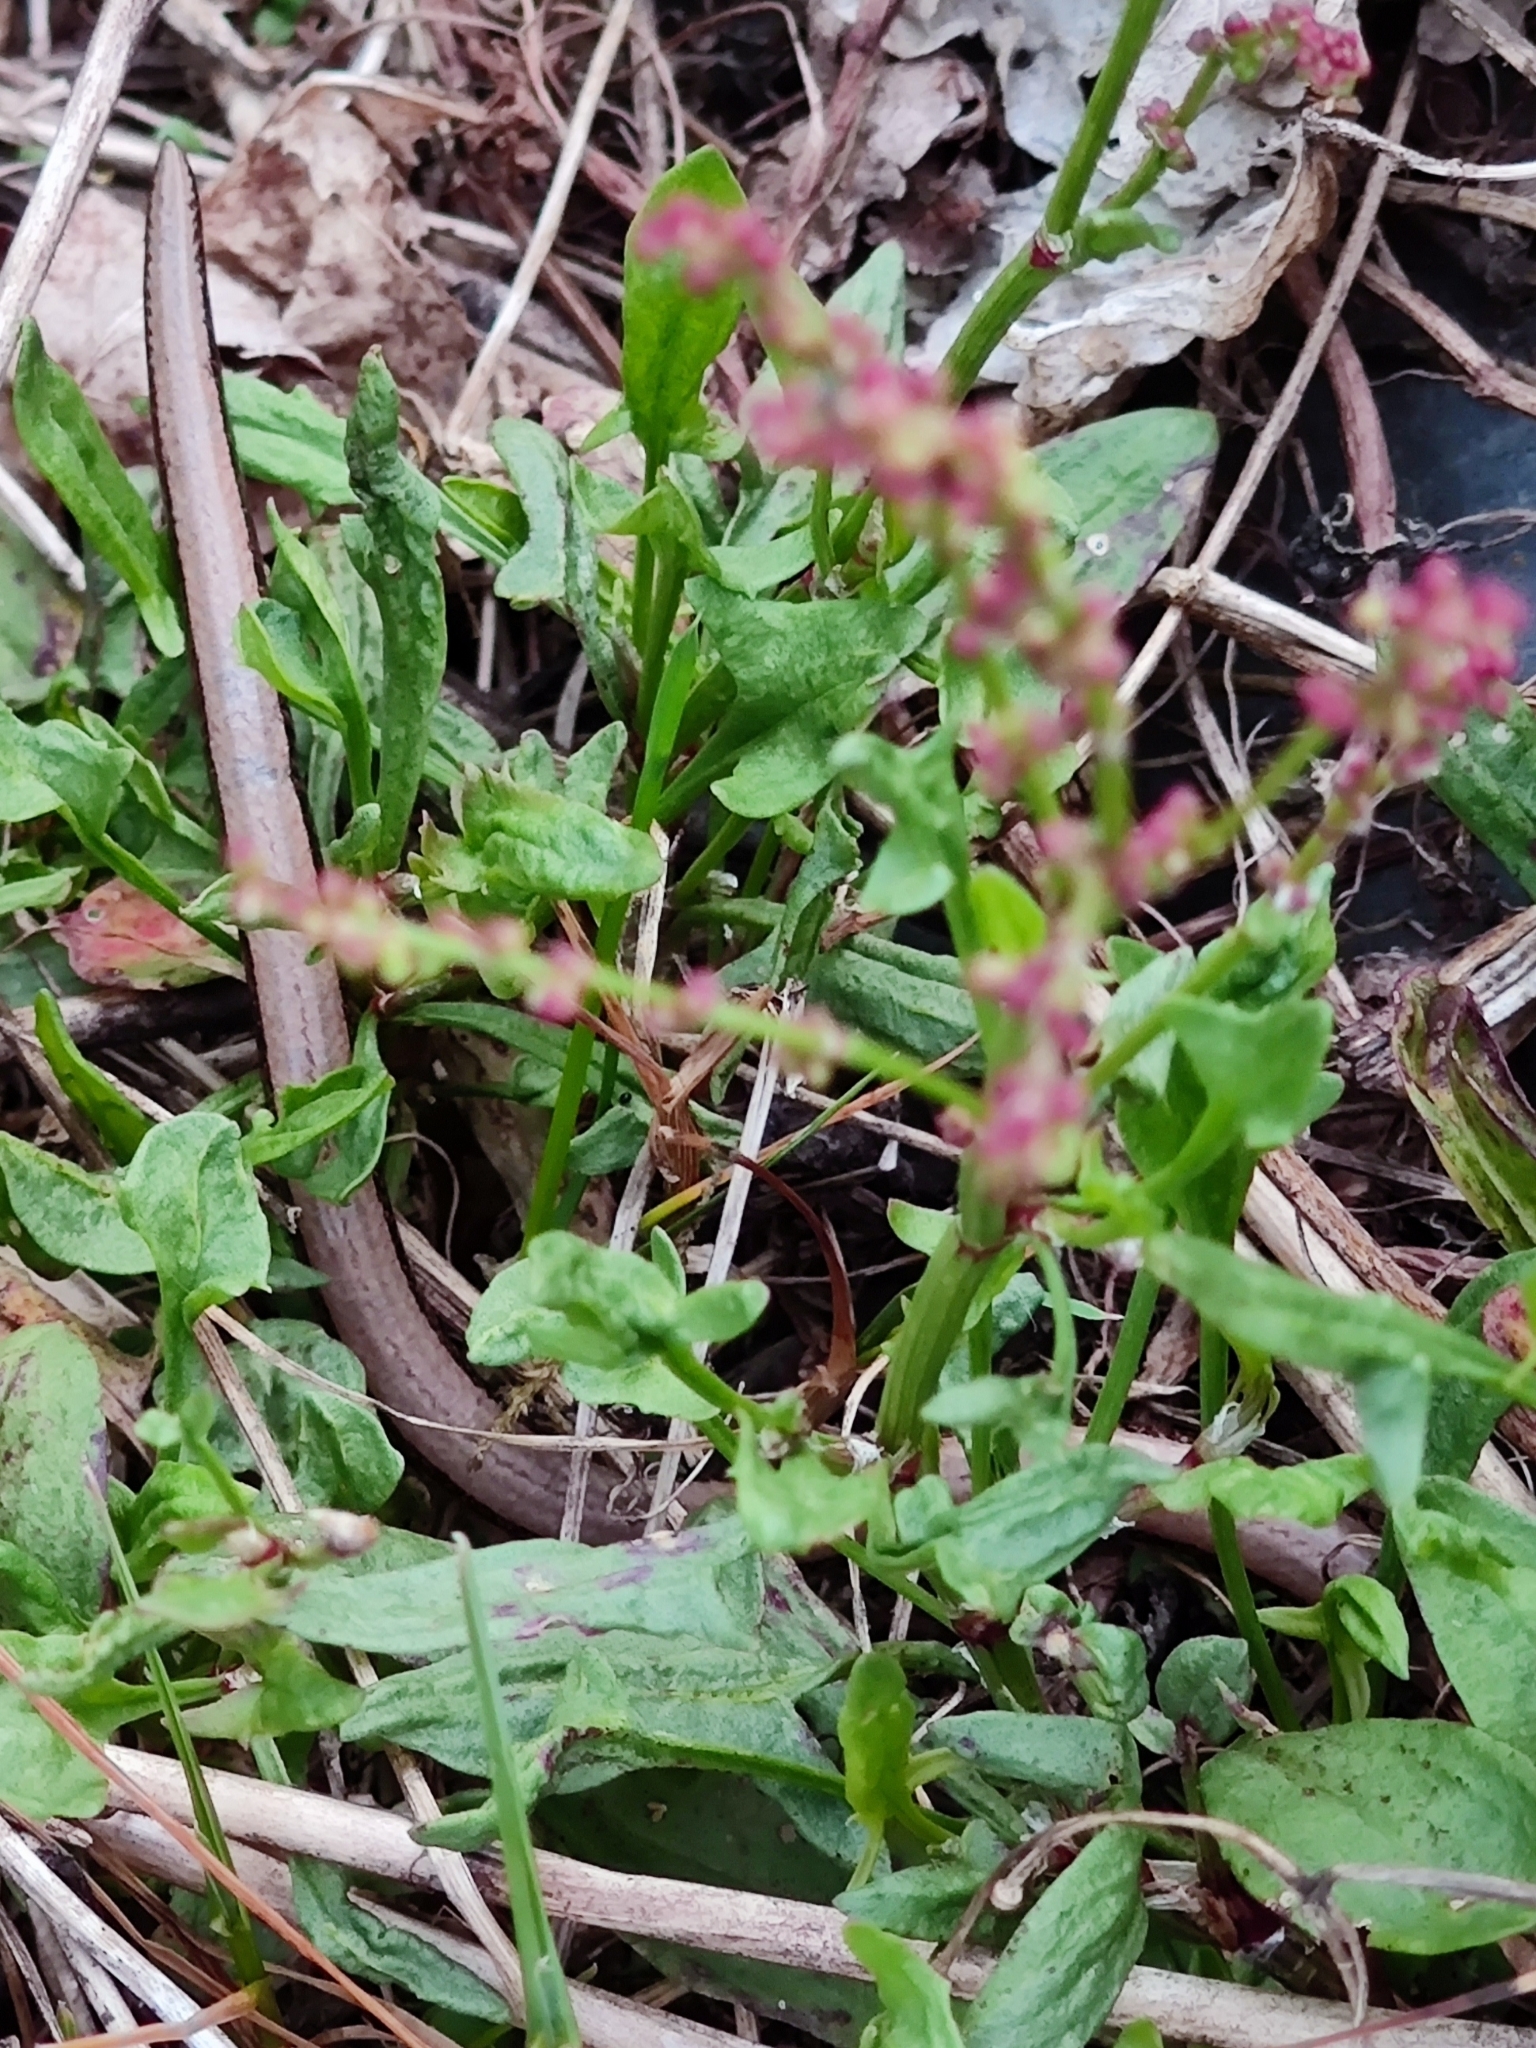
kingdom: Animalia
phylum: Chordata
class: Squamata
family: Anguidae
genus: Anguis
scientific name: Anguis fragilis
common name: Slow worm
